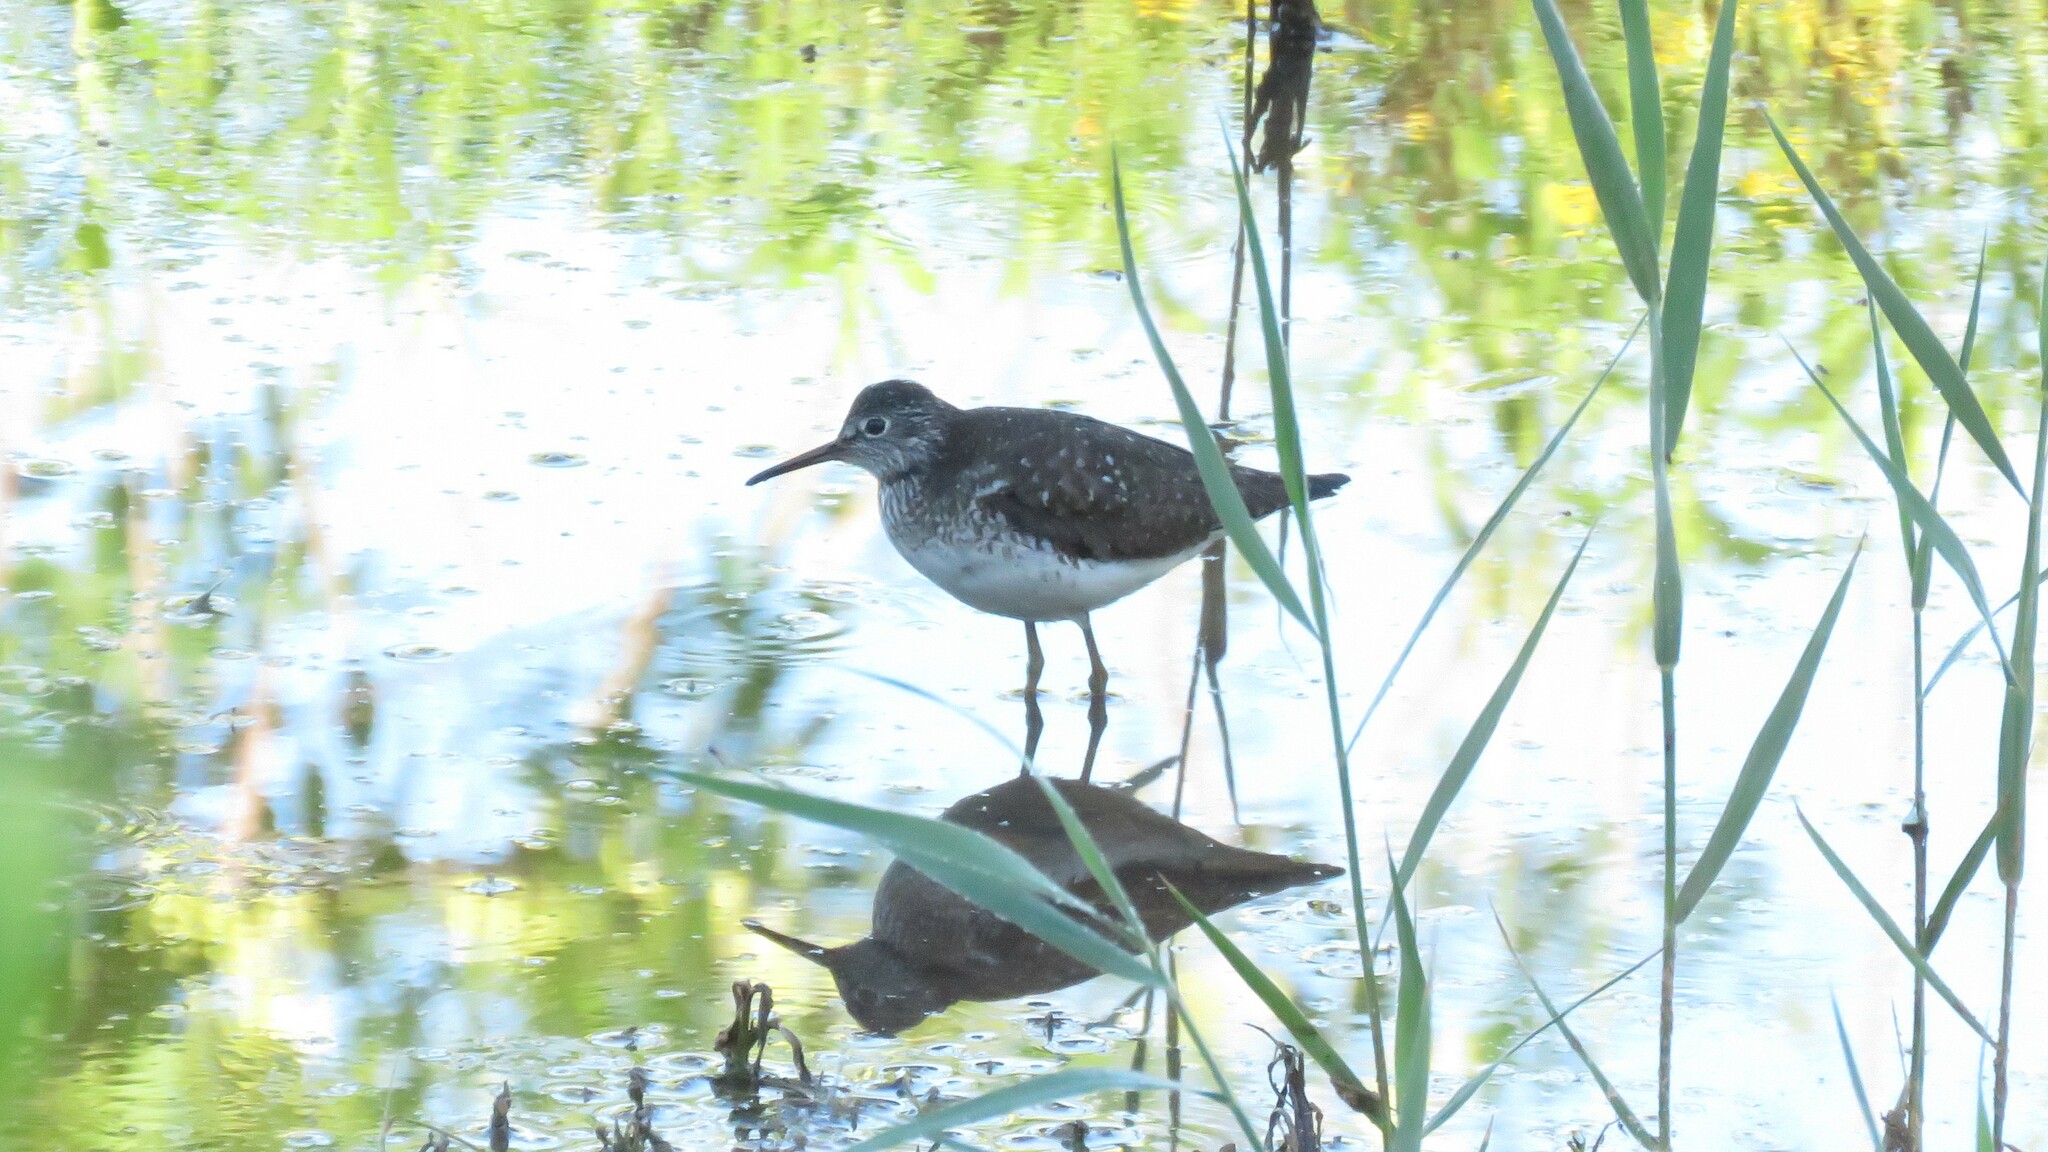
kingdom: Animalia
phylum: Chordata
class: Aves
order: Charadriiformes
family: Scolopacidae
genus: Tringa
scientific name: Tringa solitaria
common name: Solitary sandpiper
